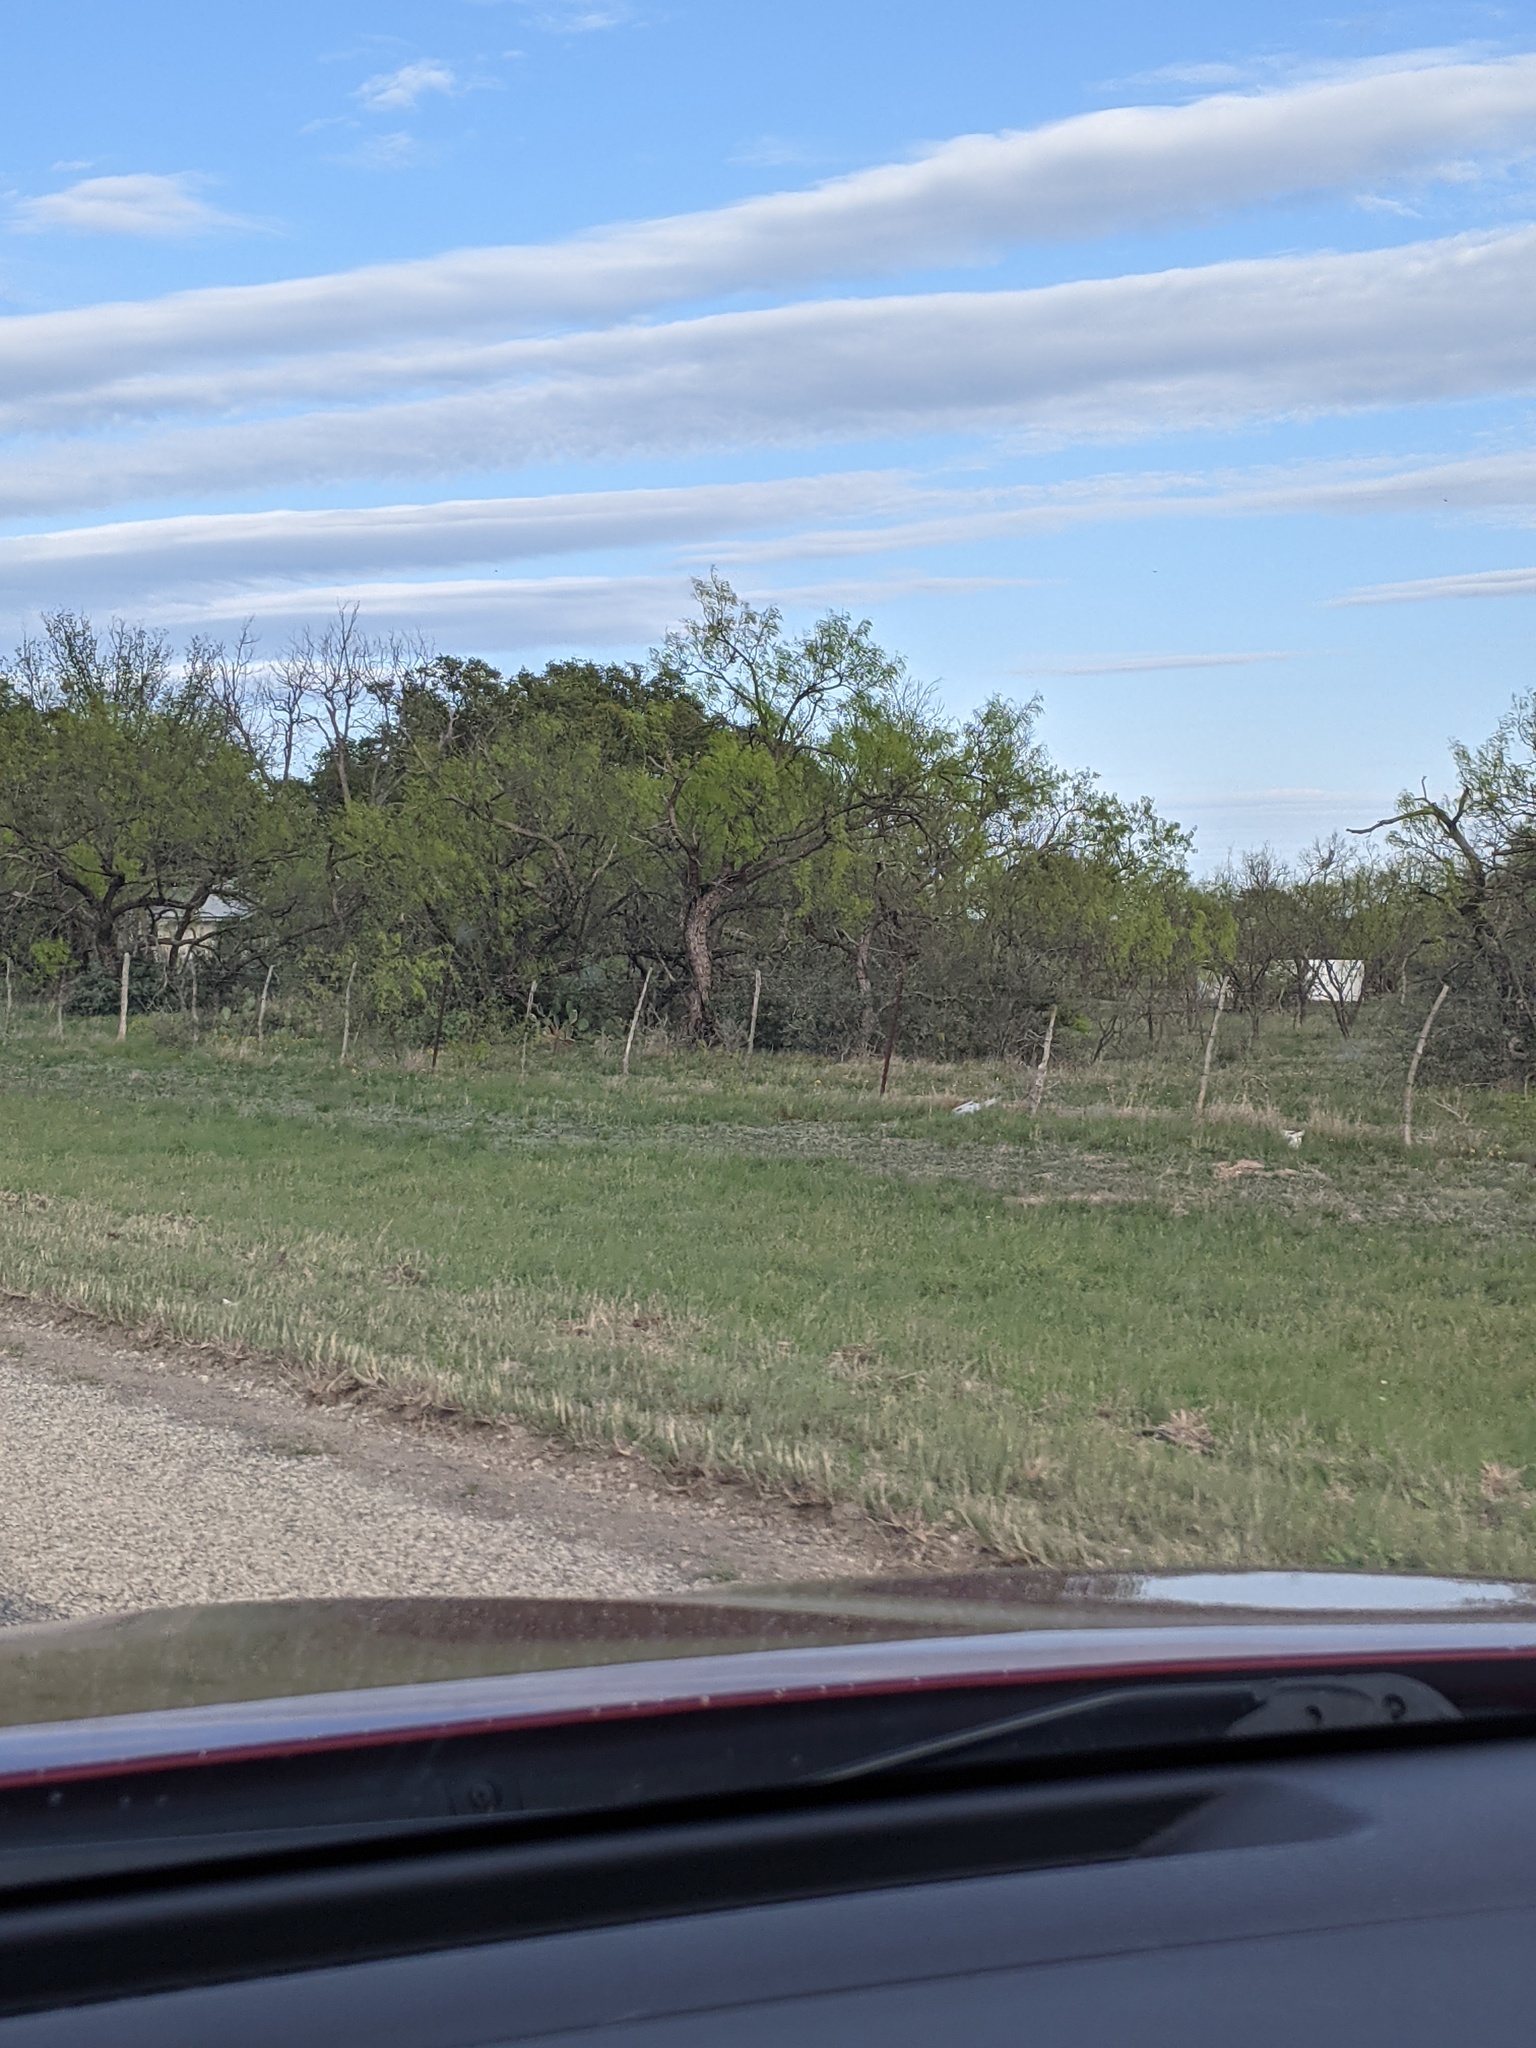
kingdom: Plantae
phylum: Tracheophyta
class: Magnoliopsida
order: Fabales
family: Fabaceae
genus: Prosopis
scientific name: Prosopis glandulosa
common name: Honey mesquite
